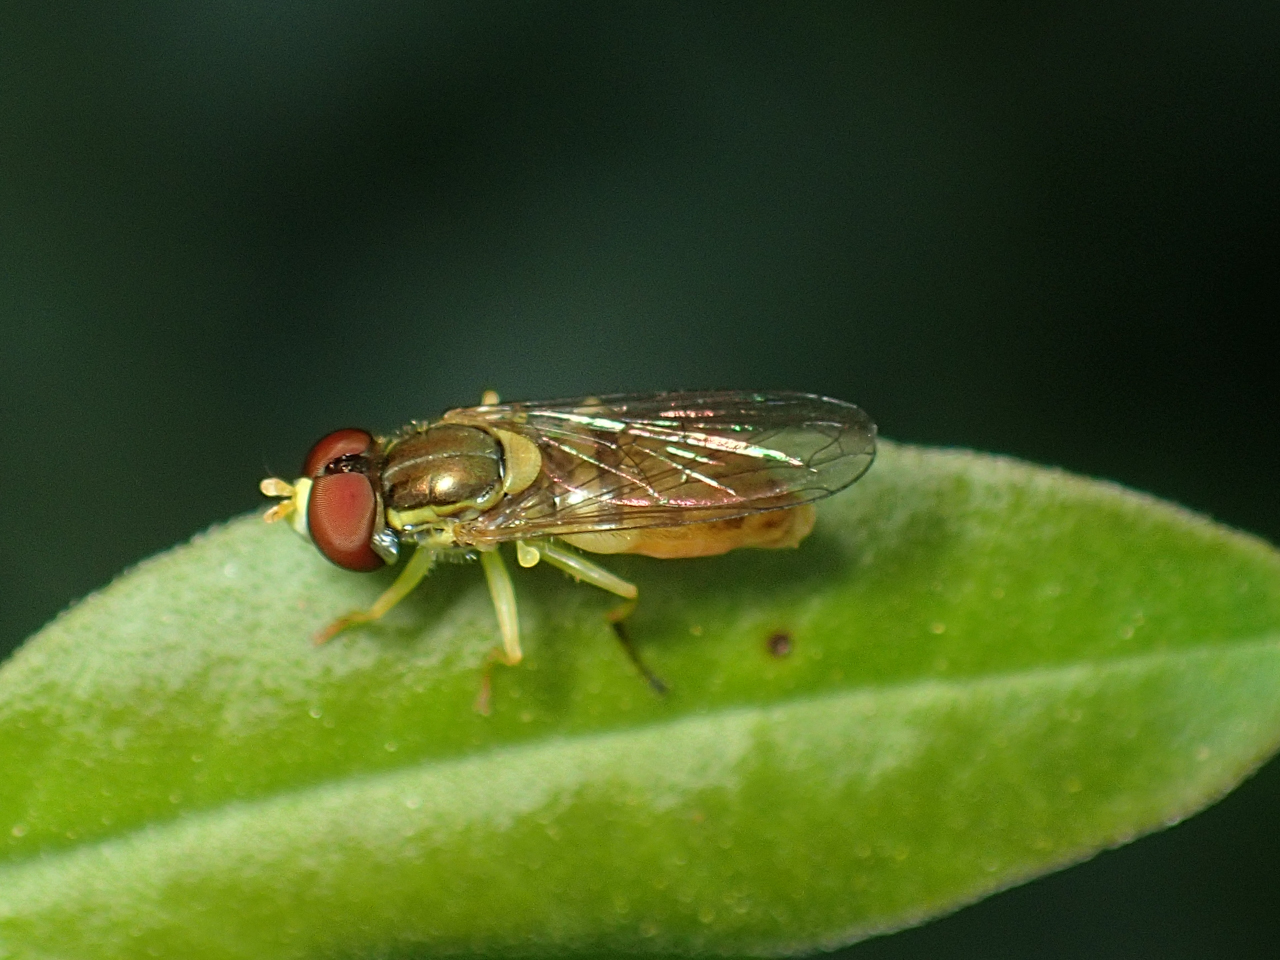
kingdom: Animalia
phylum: Arthropoda
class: Insecta
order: Diptera
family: Syrphidae
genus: Toxomerus
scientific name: Toxomerus marginatus
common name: Syrphid fly
